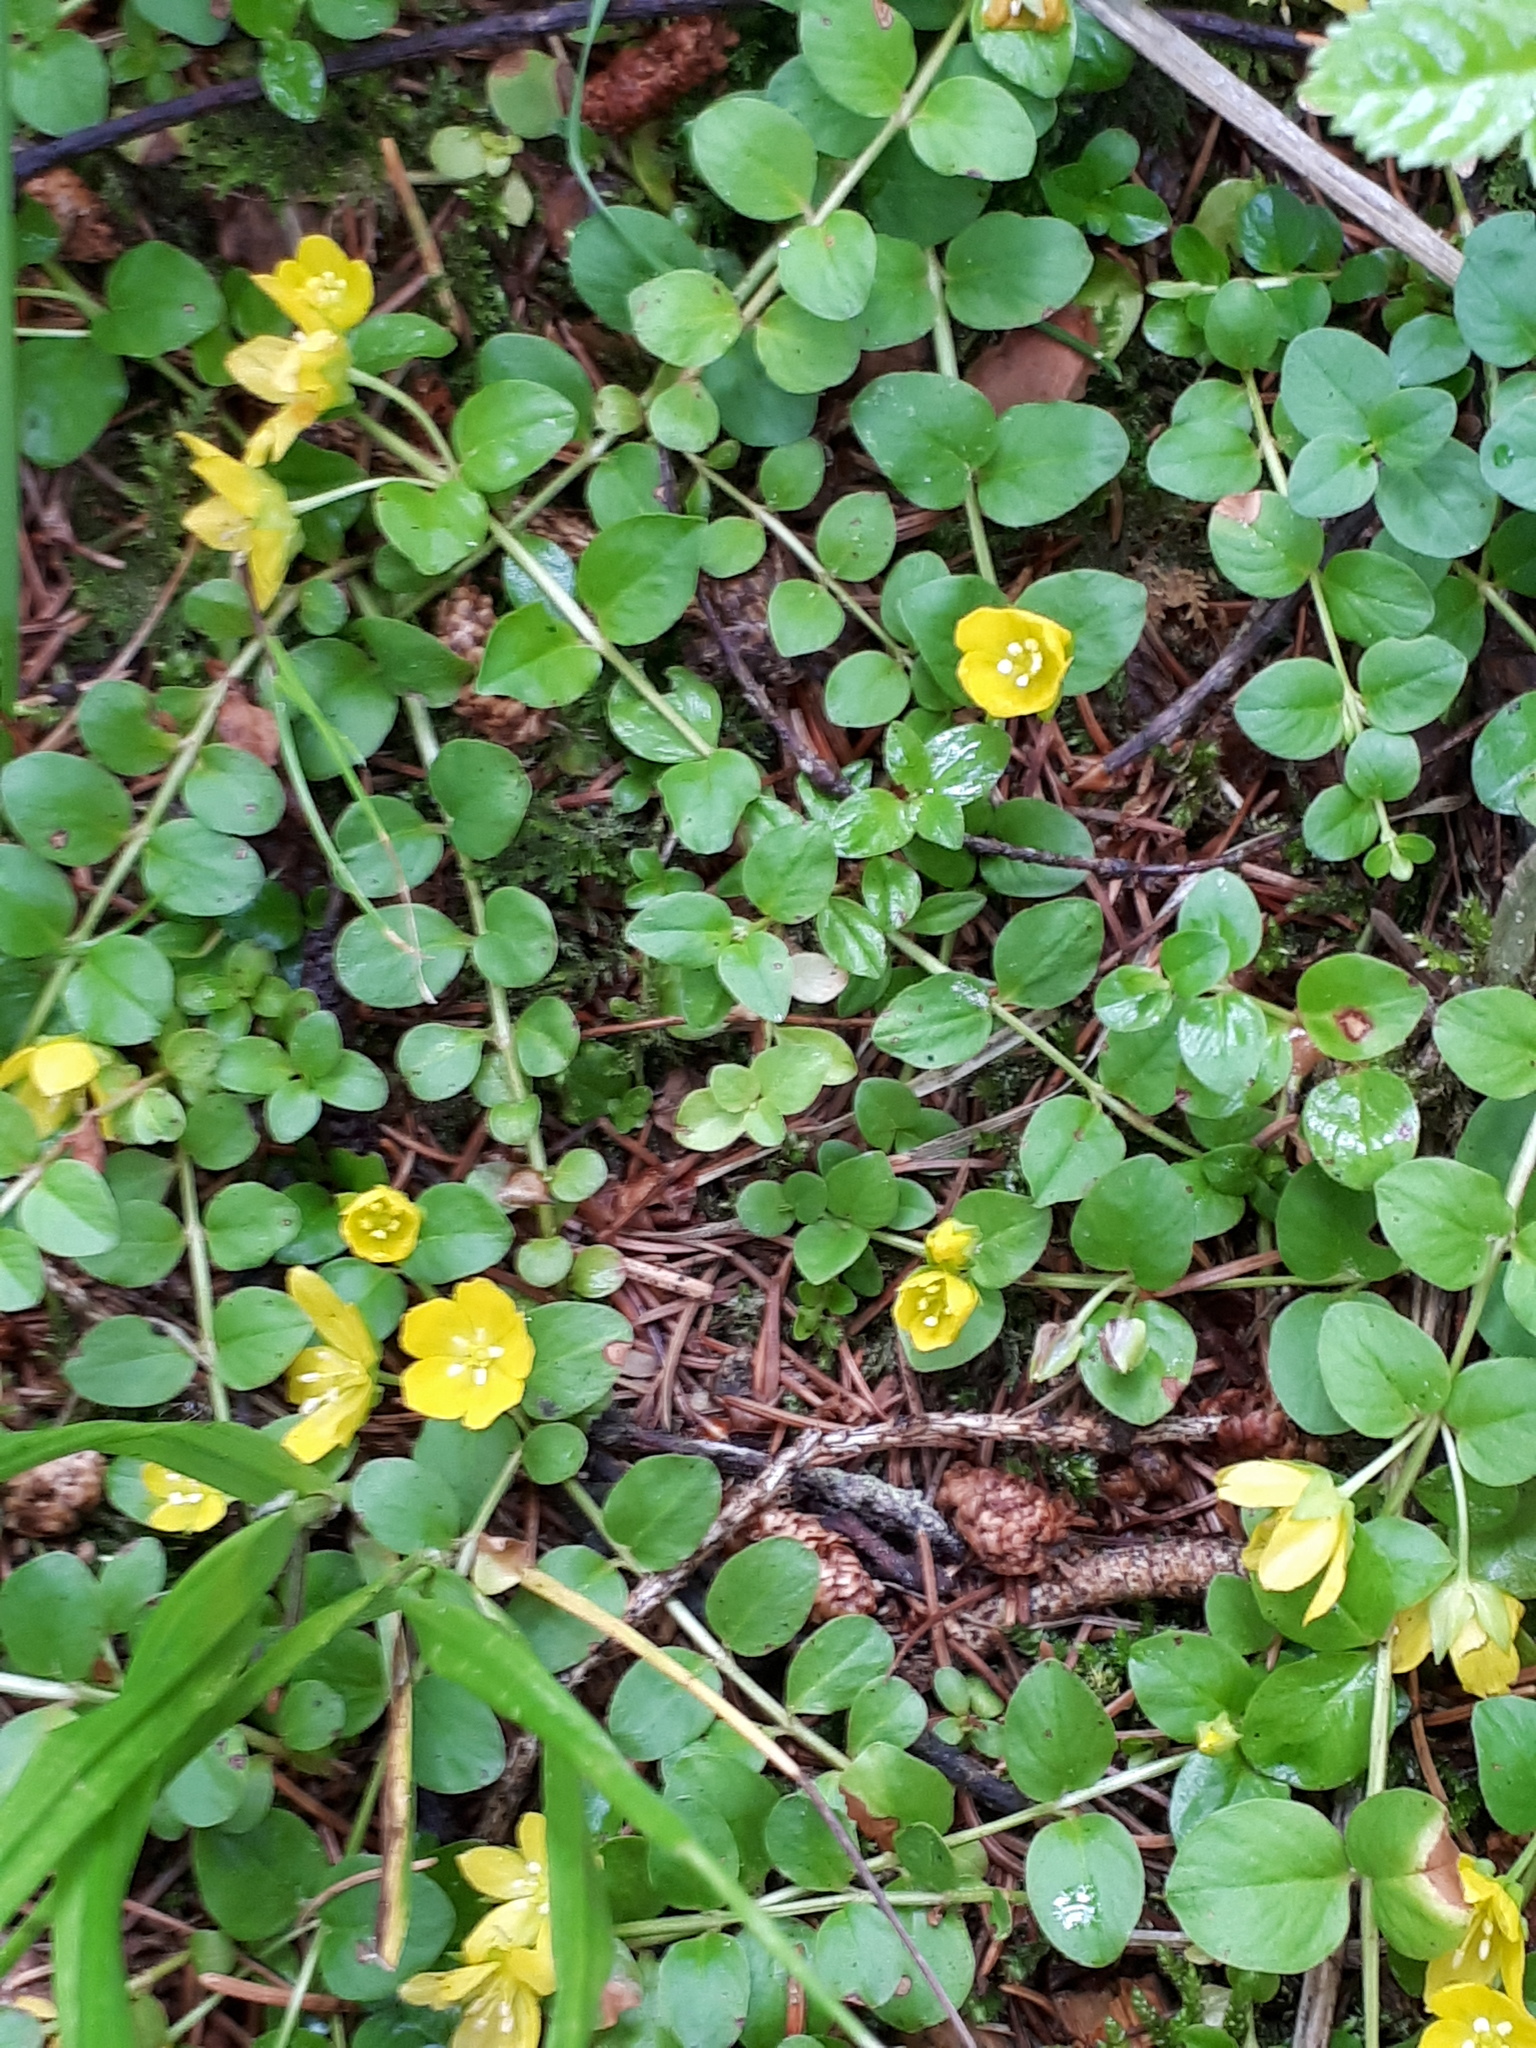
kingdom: Plantae
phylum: Tracheophyta
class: Magnoliopsida
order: Ericales
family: Primulaceae
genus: Lysimachia
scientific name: Lysimachia nummularia
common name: Moneywort
